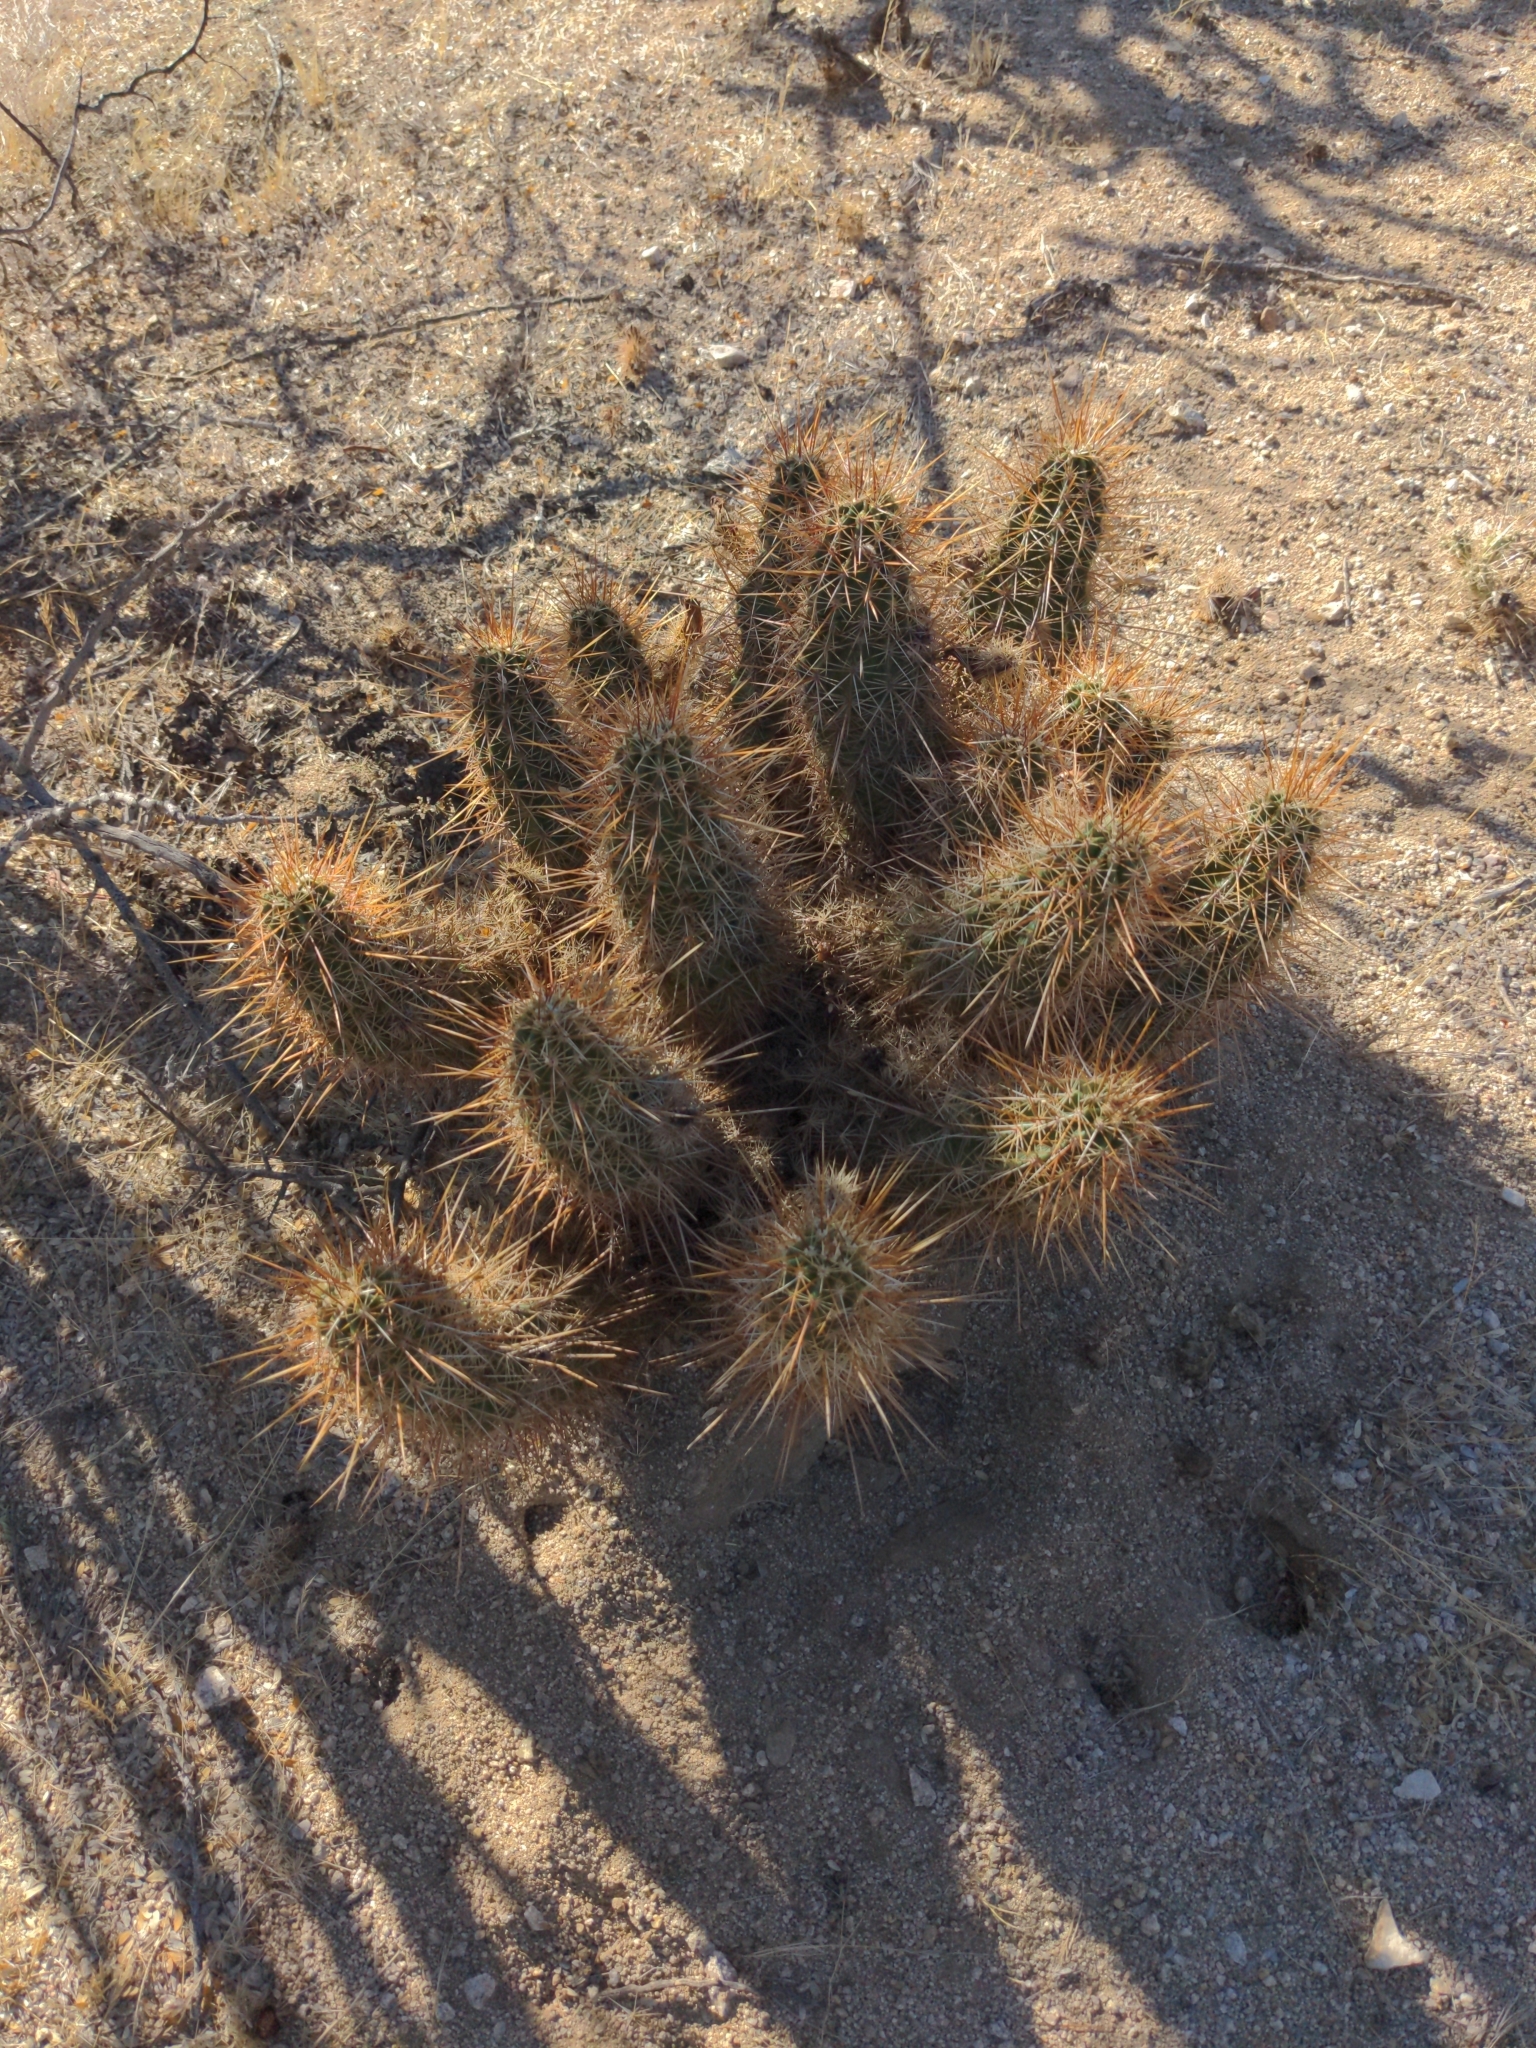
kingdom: Plantae
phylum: Tracheophyta
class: Magnoliopsida
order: Caryophyllales
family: Cactaceae
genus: Echinocereus
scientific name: Echinocereus engelmannii
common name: Engelmann's hedgehog cactus
